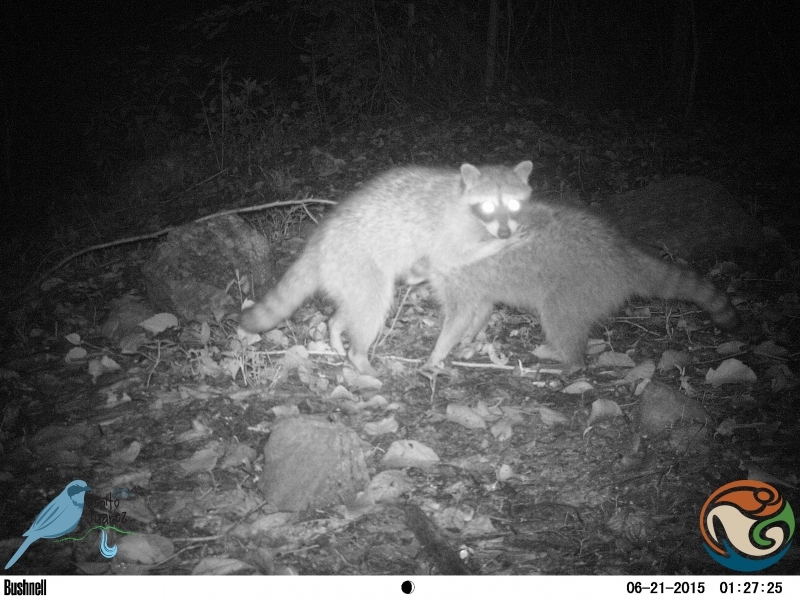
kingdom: Animalia
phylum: Chordata
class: Mammalia
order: Carnivora
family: Procyonidae
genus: Procyon
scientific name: Procyon lotor
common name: Raccoon
